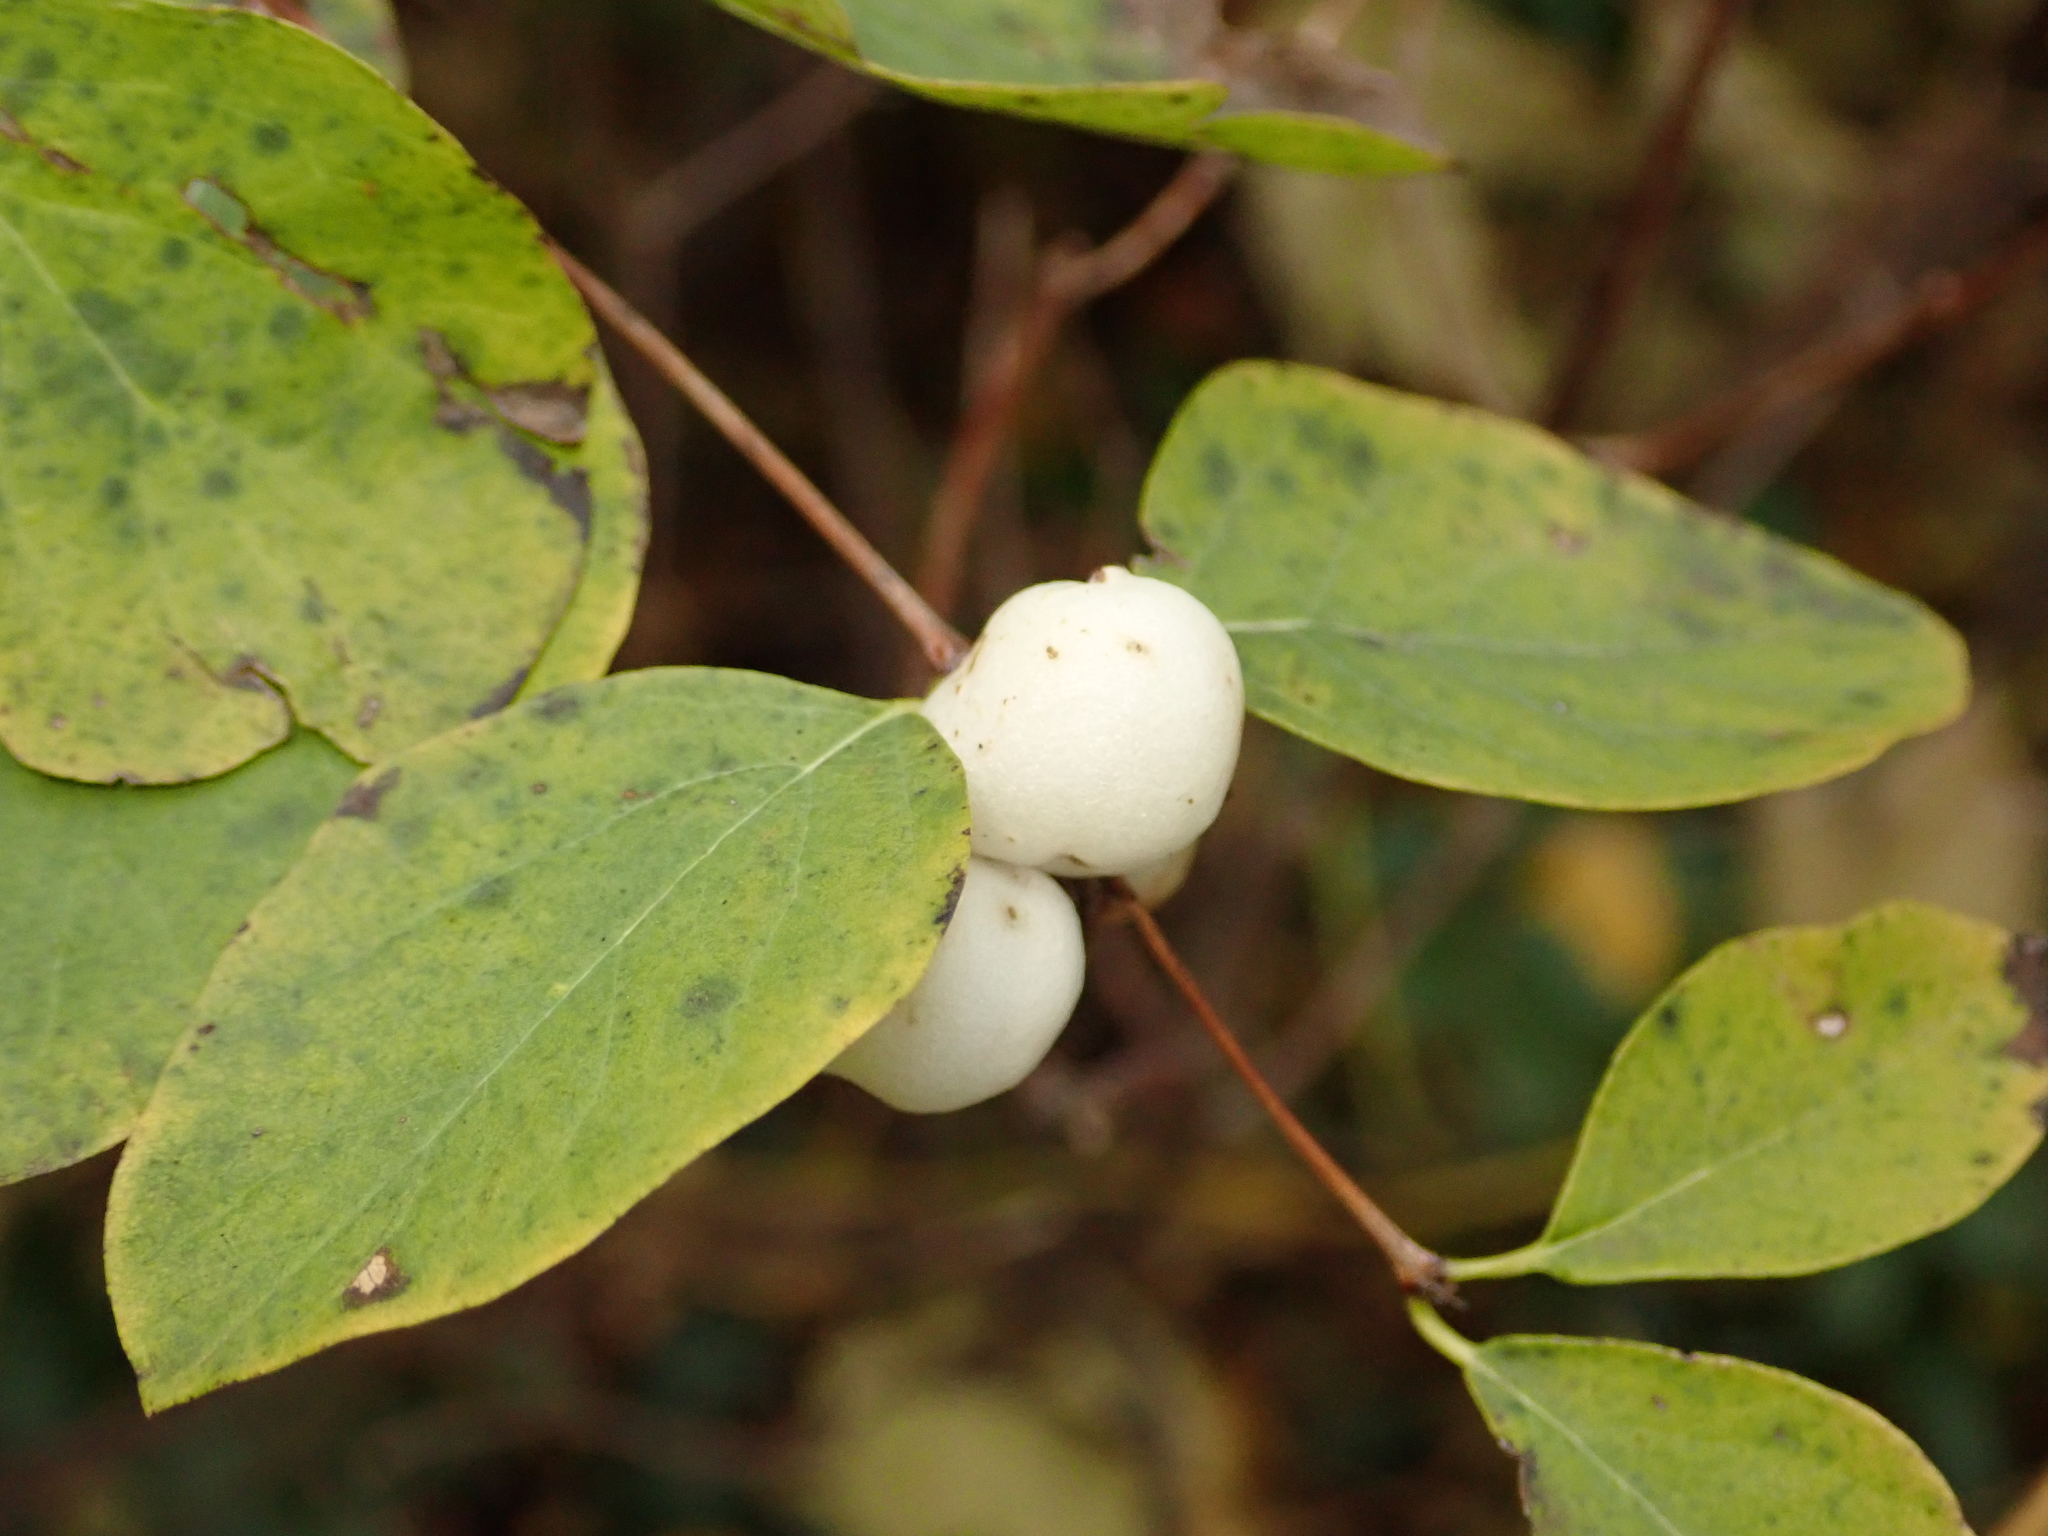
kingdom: Plantae
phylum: Tracheophyta
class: Magnoliopsida
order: Dipsacales
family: Caprifoliaceae
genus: Symphoricarpos
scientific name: Symphoricarpos albus
